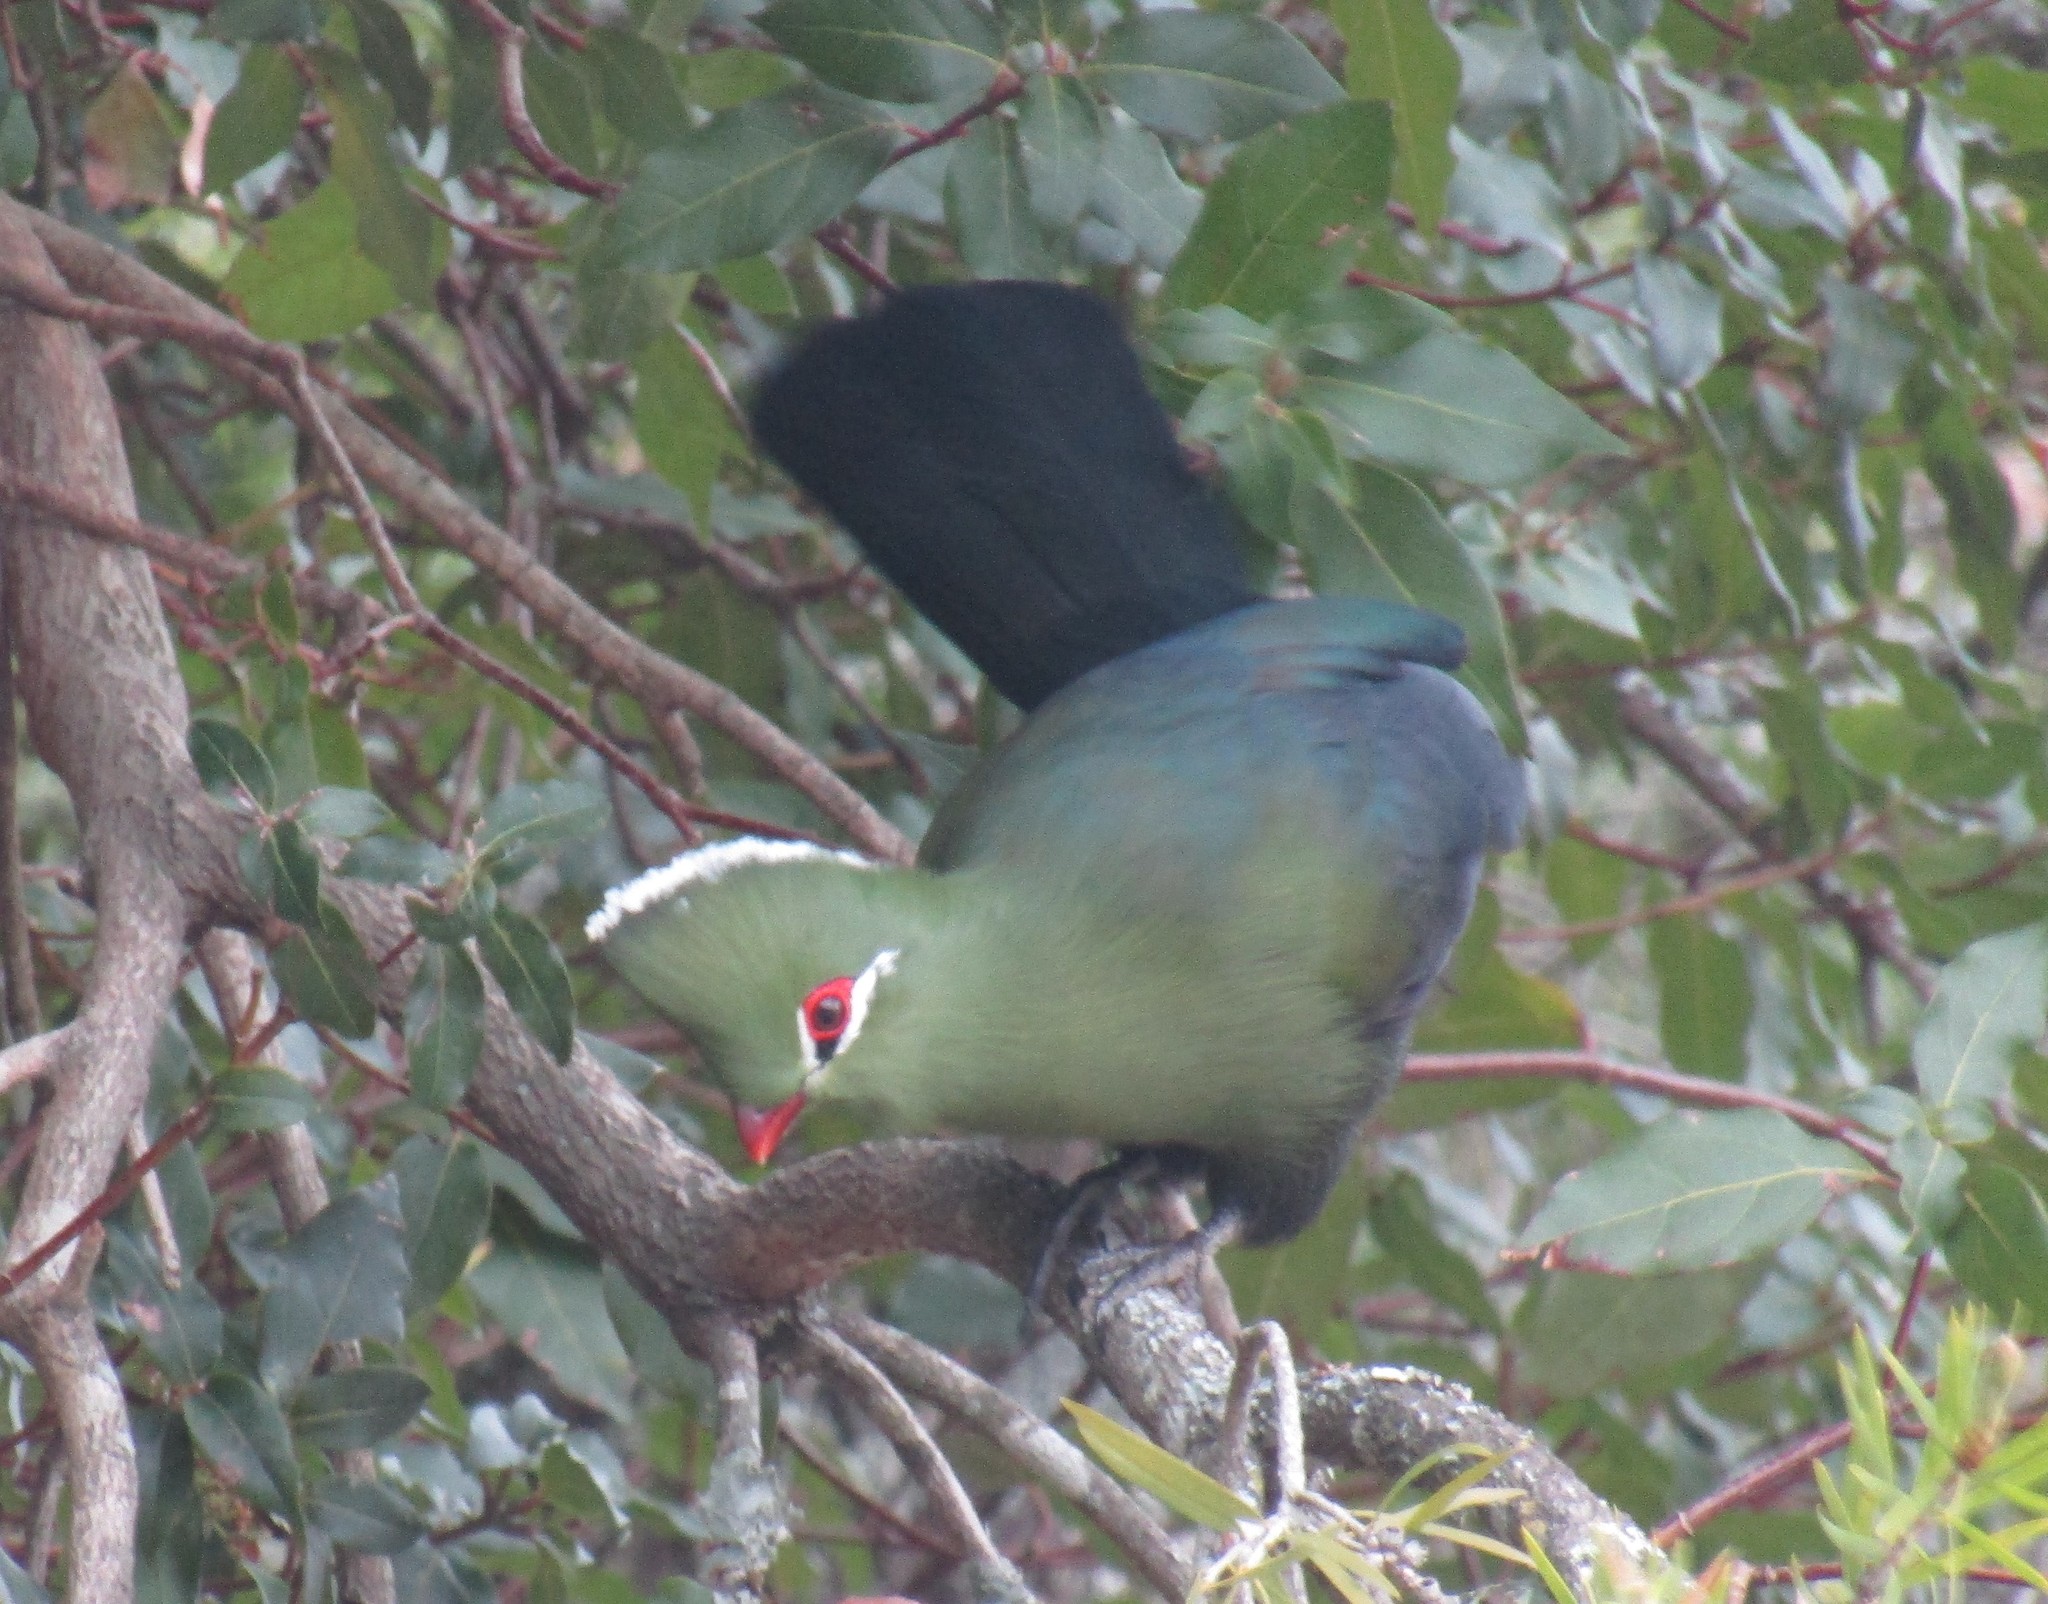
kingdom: Animalia
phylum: Chordata
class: Aves
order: Musophagiformes
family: Musophagidae
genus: Tauraco
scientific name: Tauraco corythaix
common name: Knysna turaco
